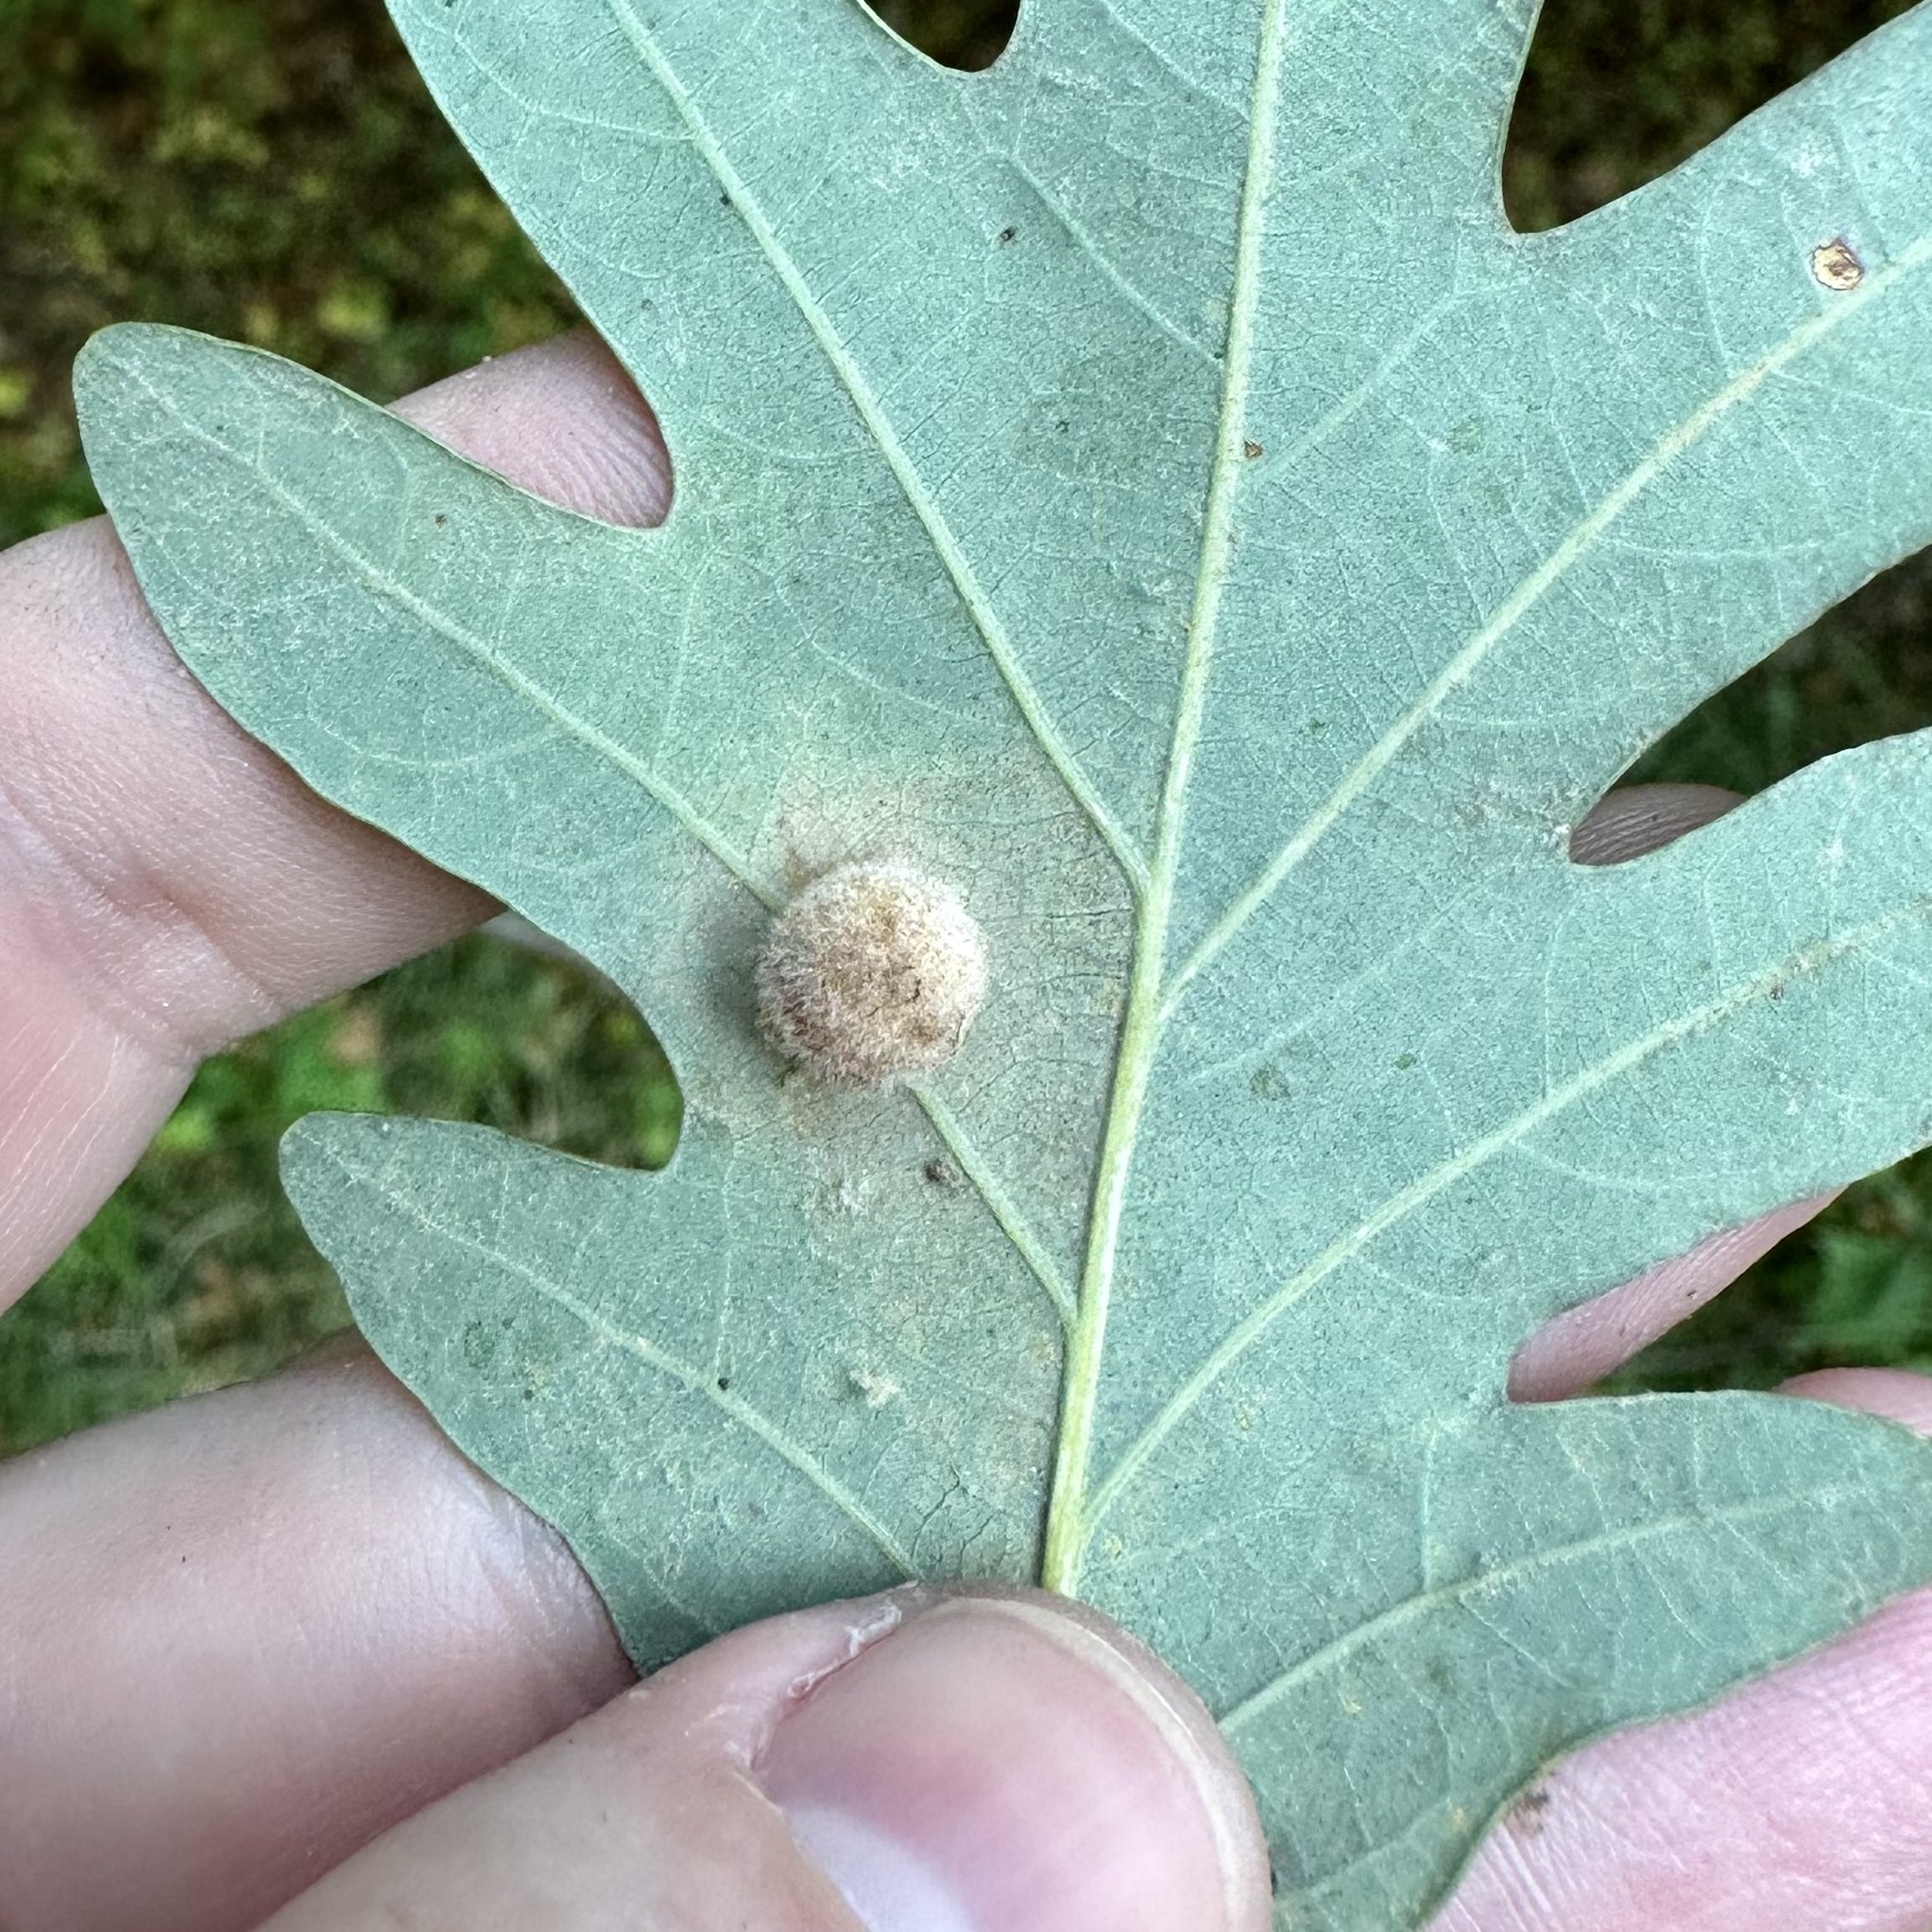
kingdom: Animalia
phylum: Arthropoda
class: Insecta
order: Hymenoptera
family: Cynipidae
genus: Philonix
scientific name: Philonix fulvicollis
